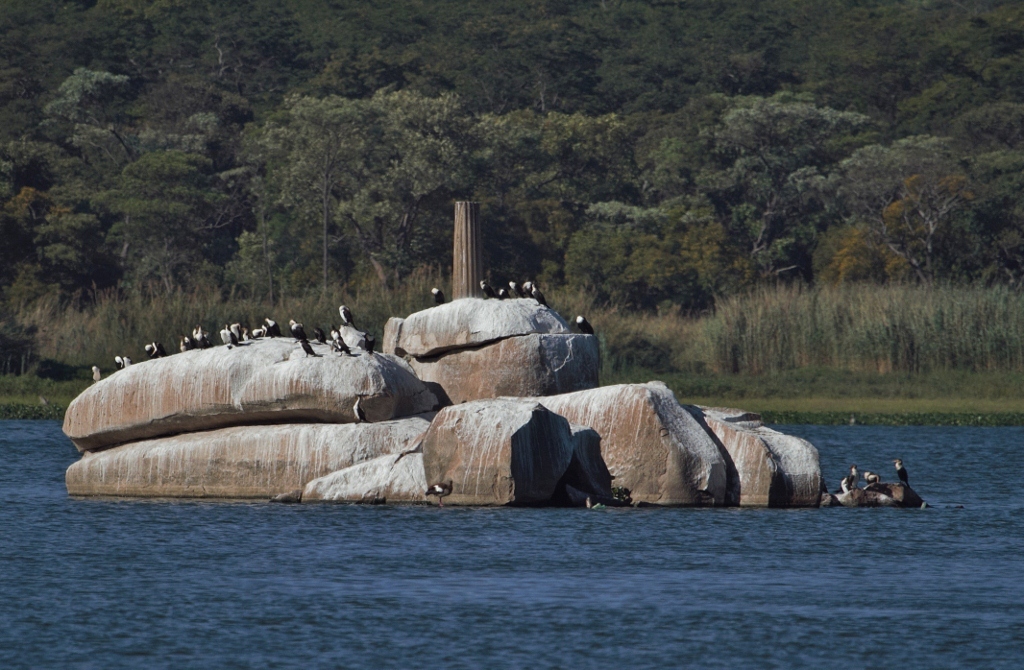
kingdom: Animalia
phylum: Chordata
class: Aves
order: Suliformes
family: Phalacrocoracidae
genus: Phalacrocorax
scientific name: Phalacrocorax carbo
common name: Great cormorant
